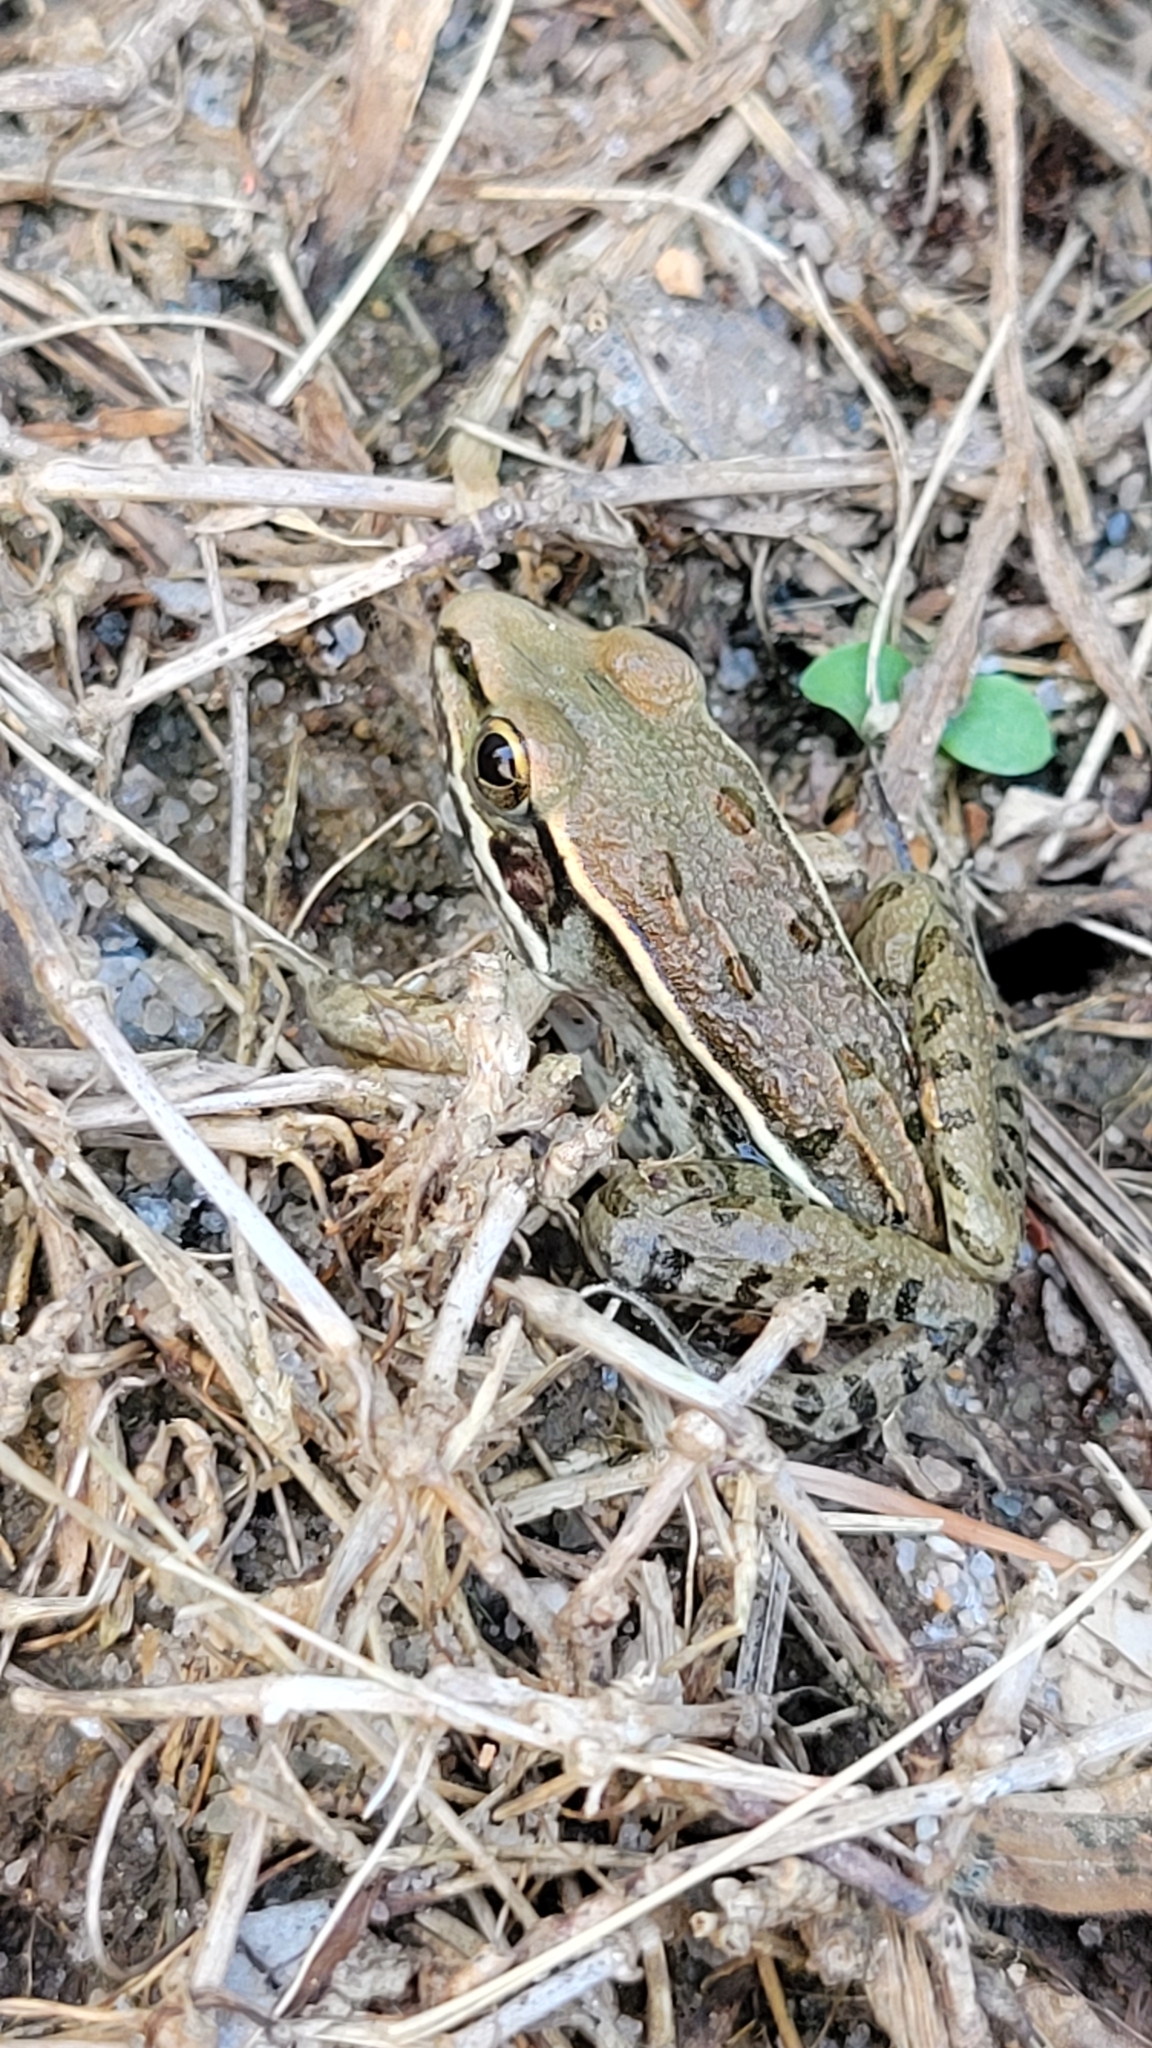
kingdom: Animalia
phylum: Chordata
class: Amphibia
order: Anura
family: Ranidae
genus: Lithobates
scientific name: Lithobates sphenocephalus
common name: Southern leopard frog
